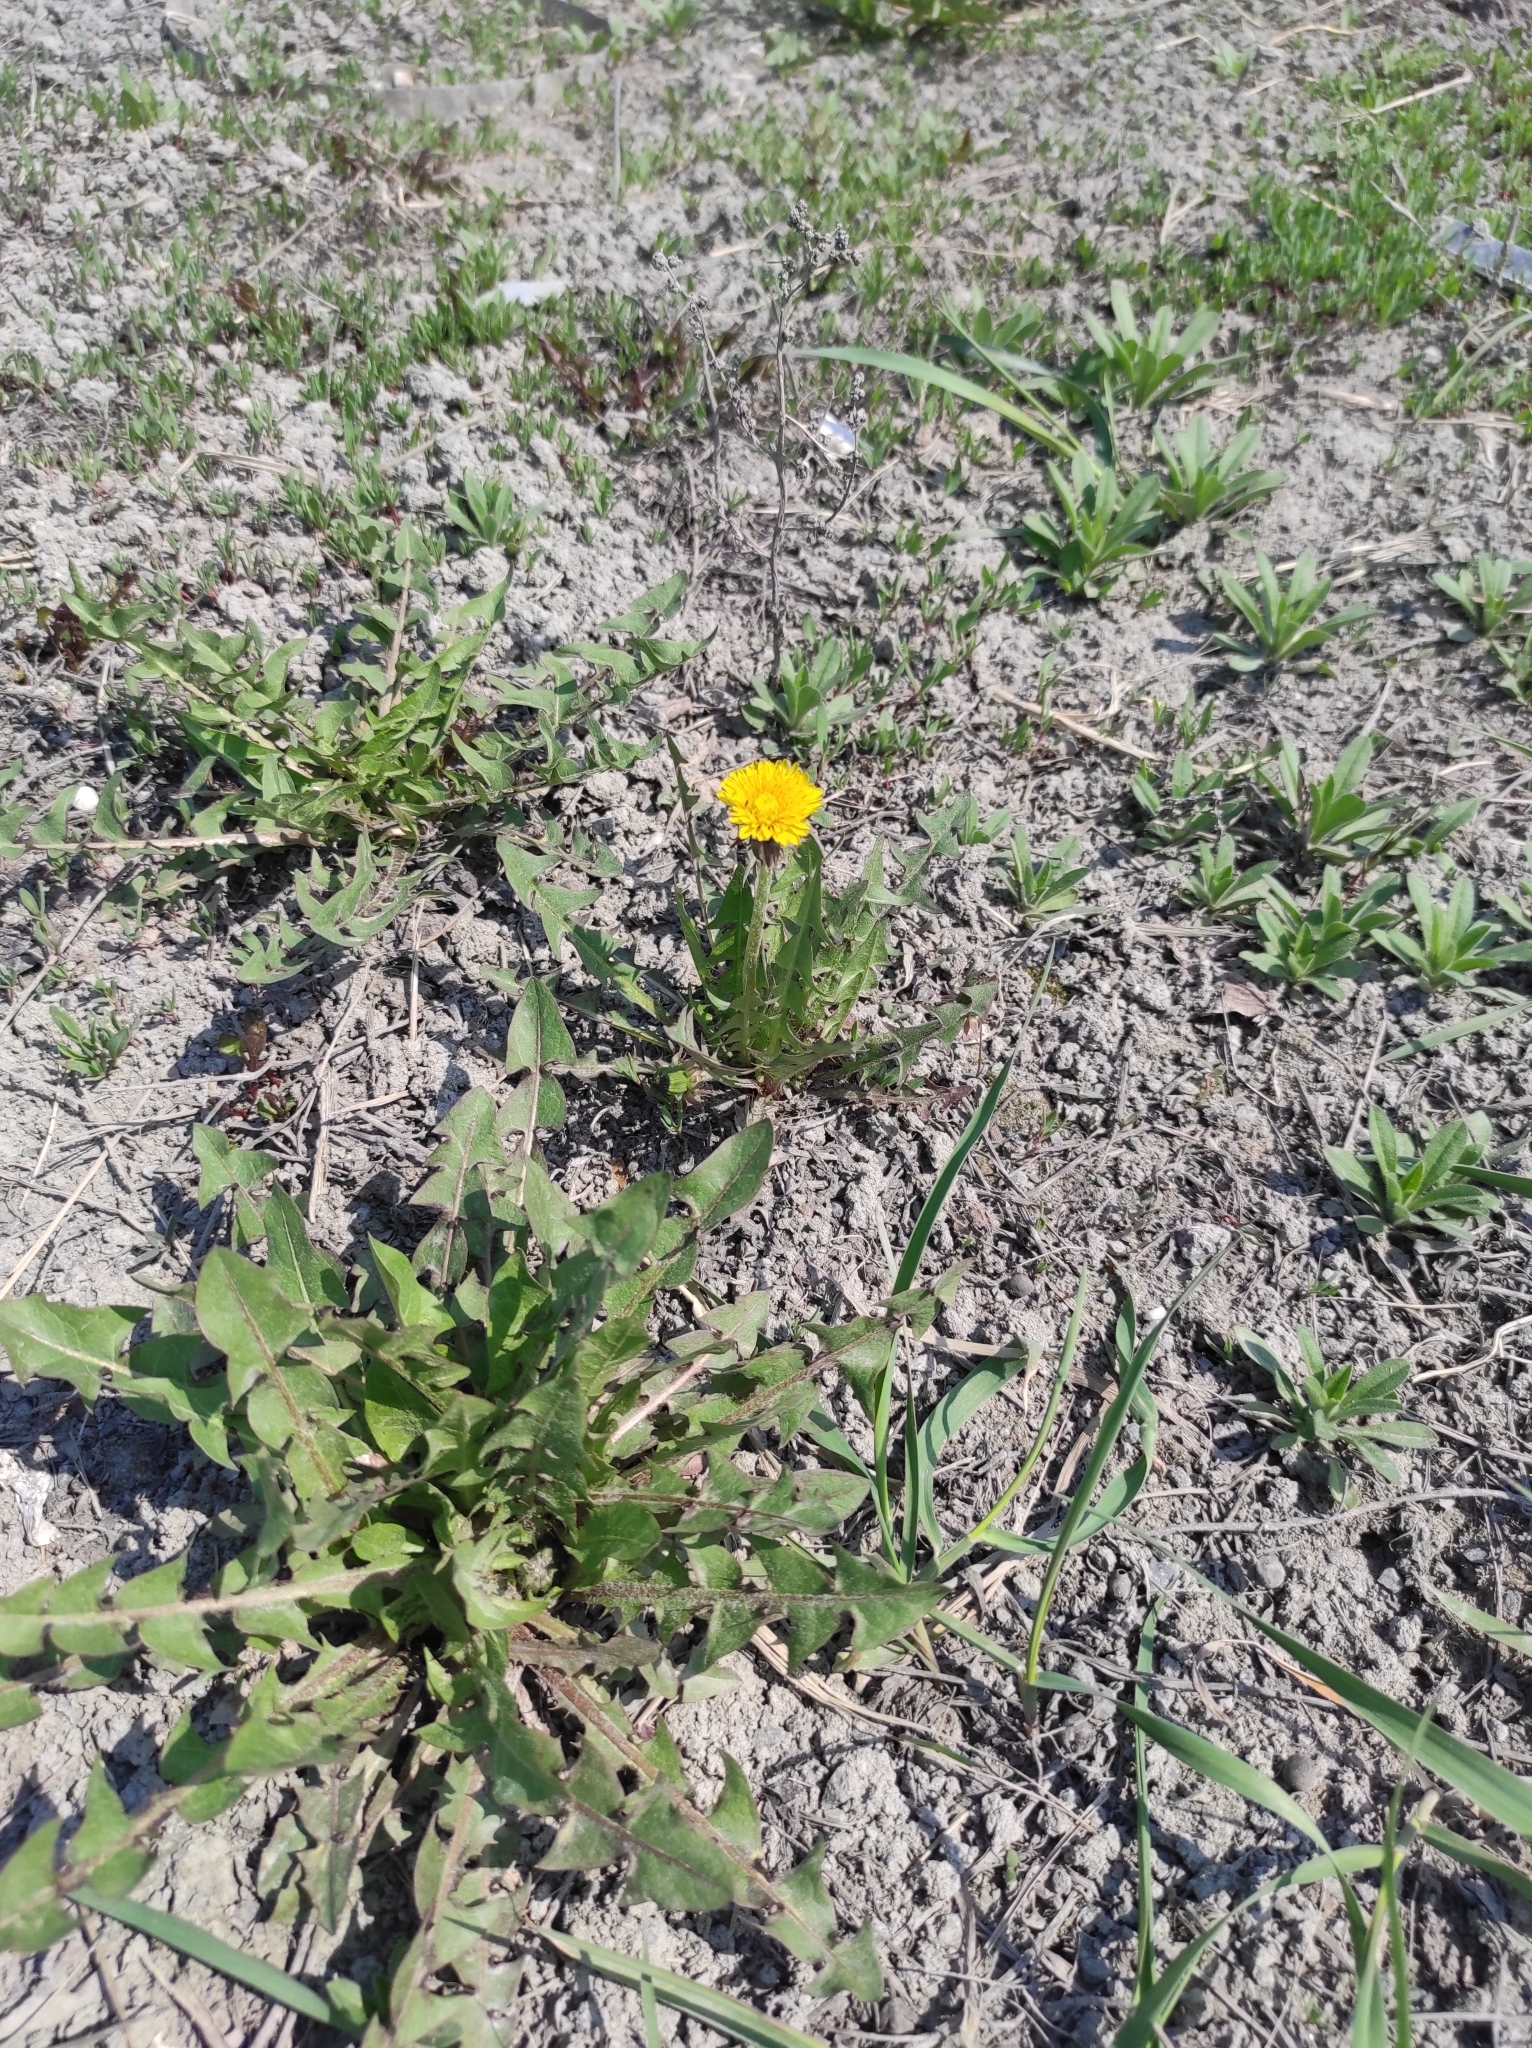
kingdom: Plantae
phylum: Tracheophyta
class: Magnoliopsida
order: Asterales
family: Asteraceae
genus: Taraxacum
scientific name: Taraxacum officinale
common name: Common dandelion
